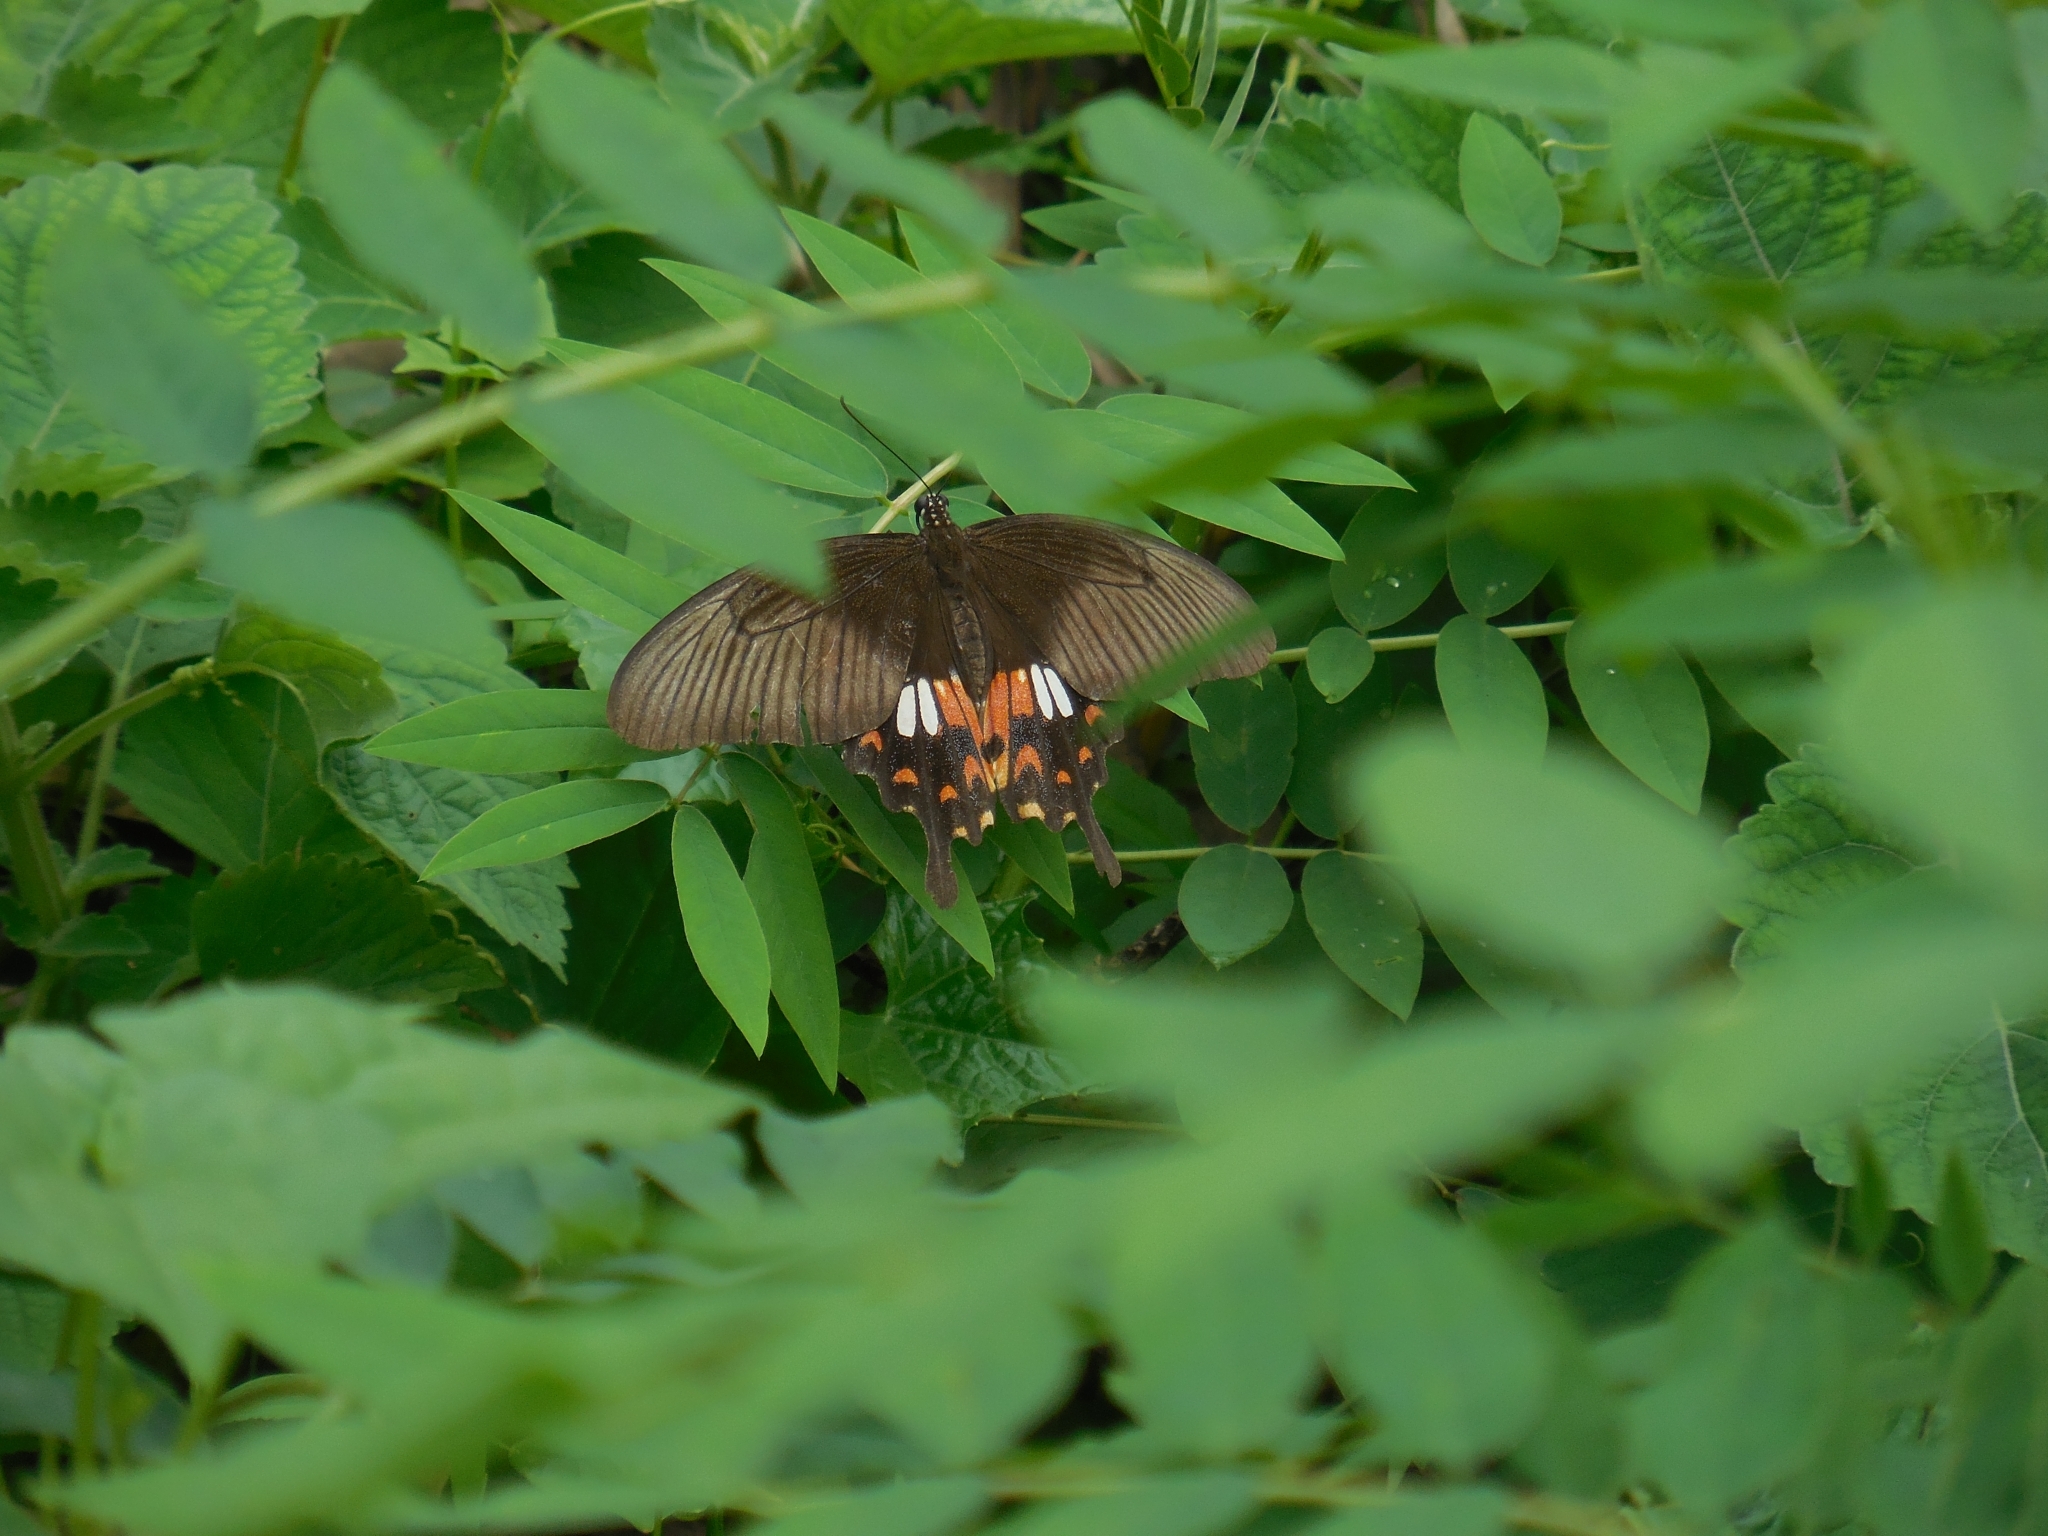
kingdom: Animalia
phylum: Arthropoda
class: Insecta
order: Lepidoptera
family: Papilionidae
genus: Papilio
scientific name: Papilio polytes
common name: Common mormon
